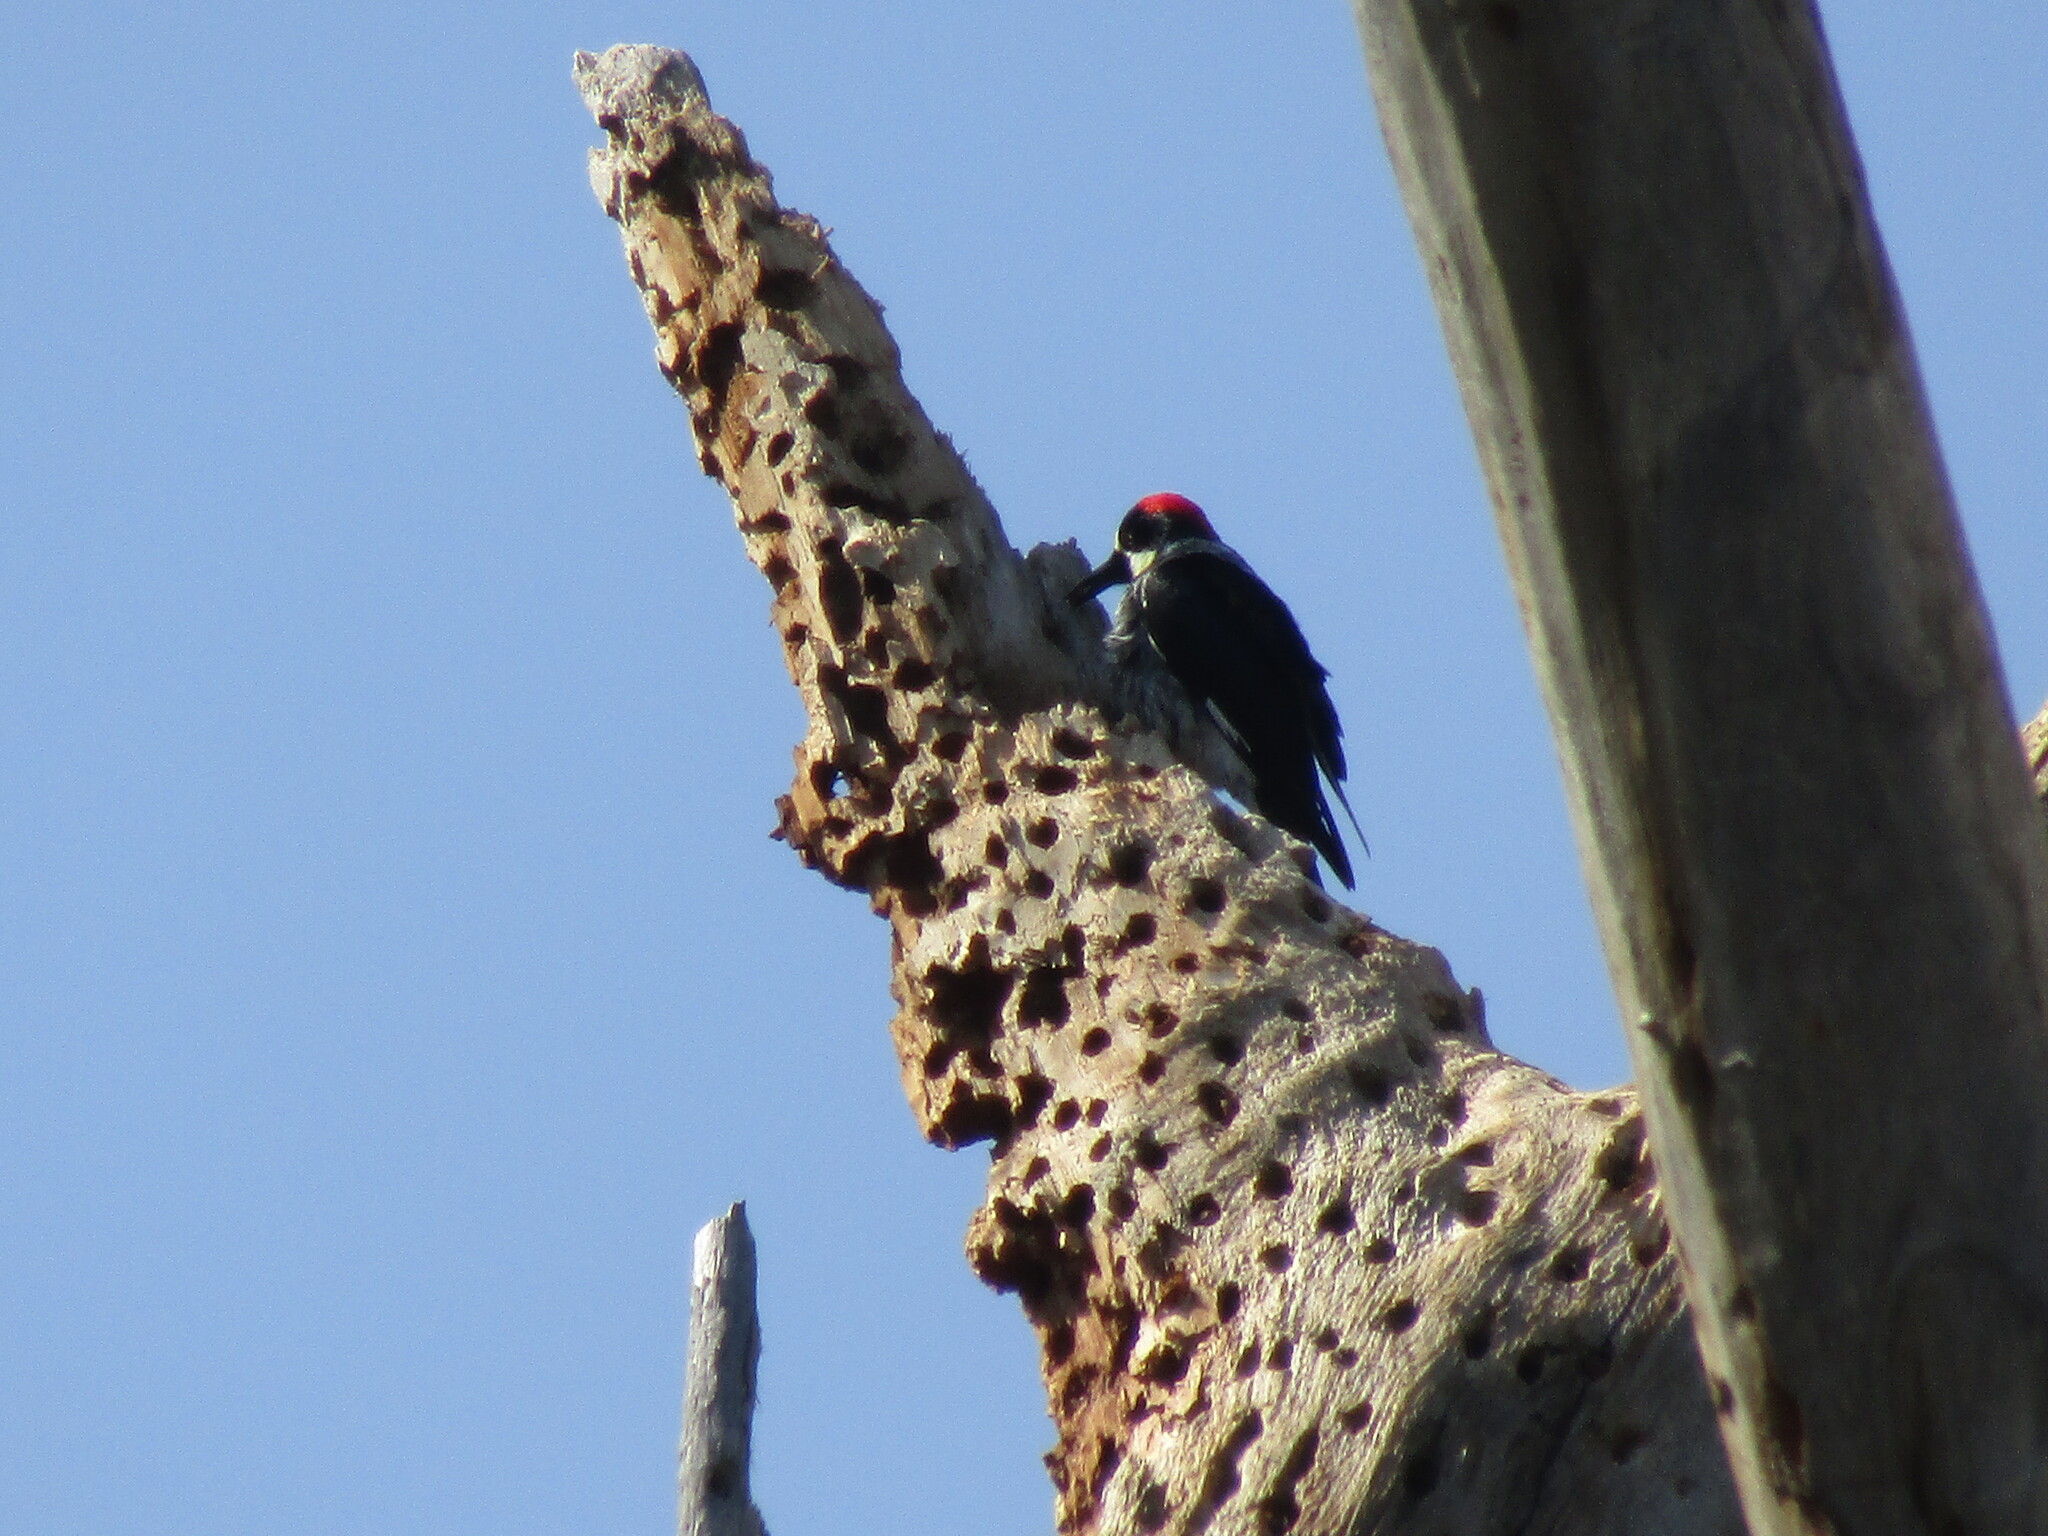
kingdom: Animalia
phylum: Chordata
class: Aves
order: Piciformes
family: Picidae
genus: Melanerpes
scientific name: Melanerpes formicivorus
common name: Acorn woodpecker
